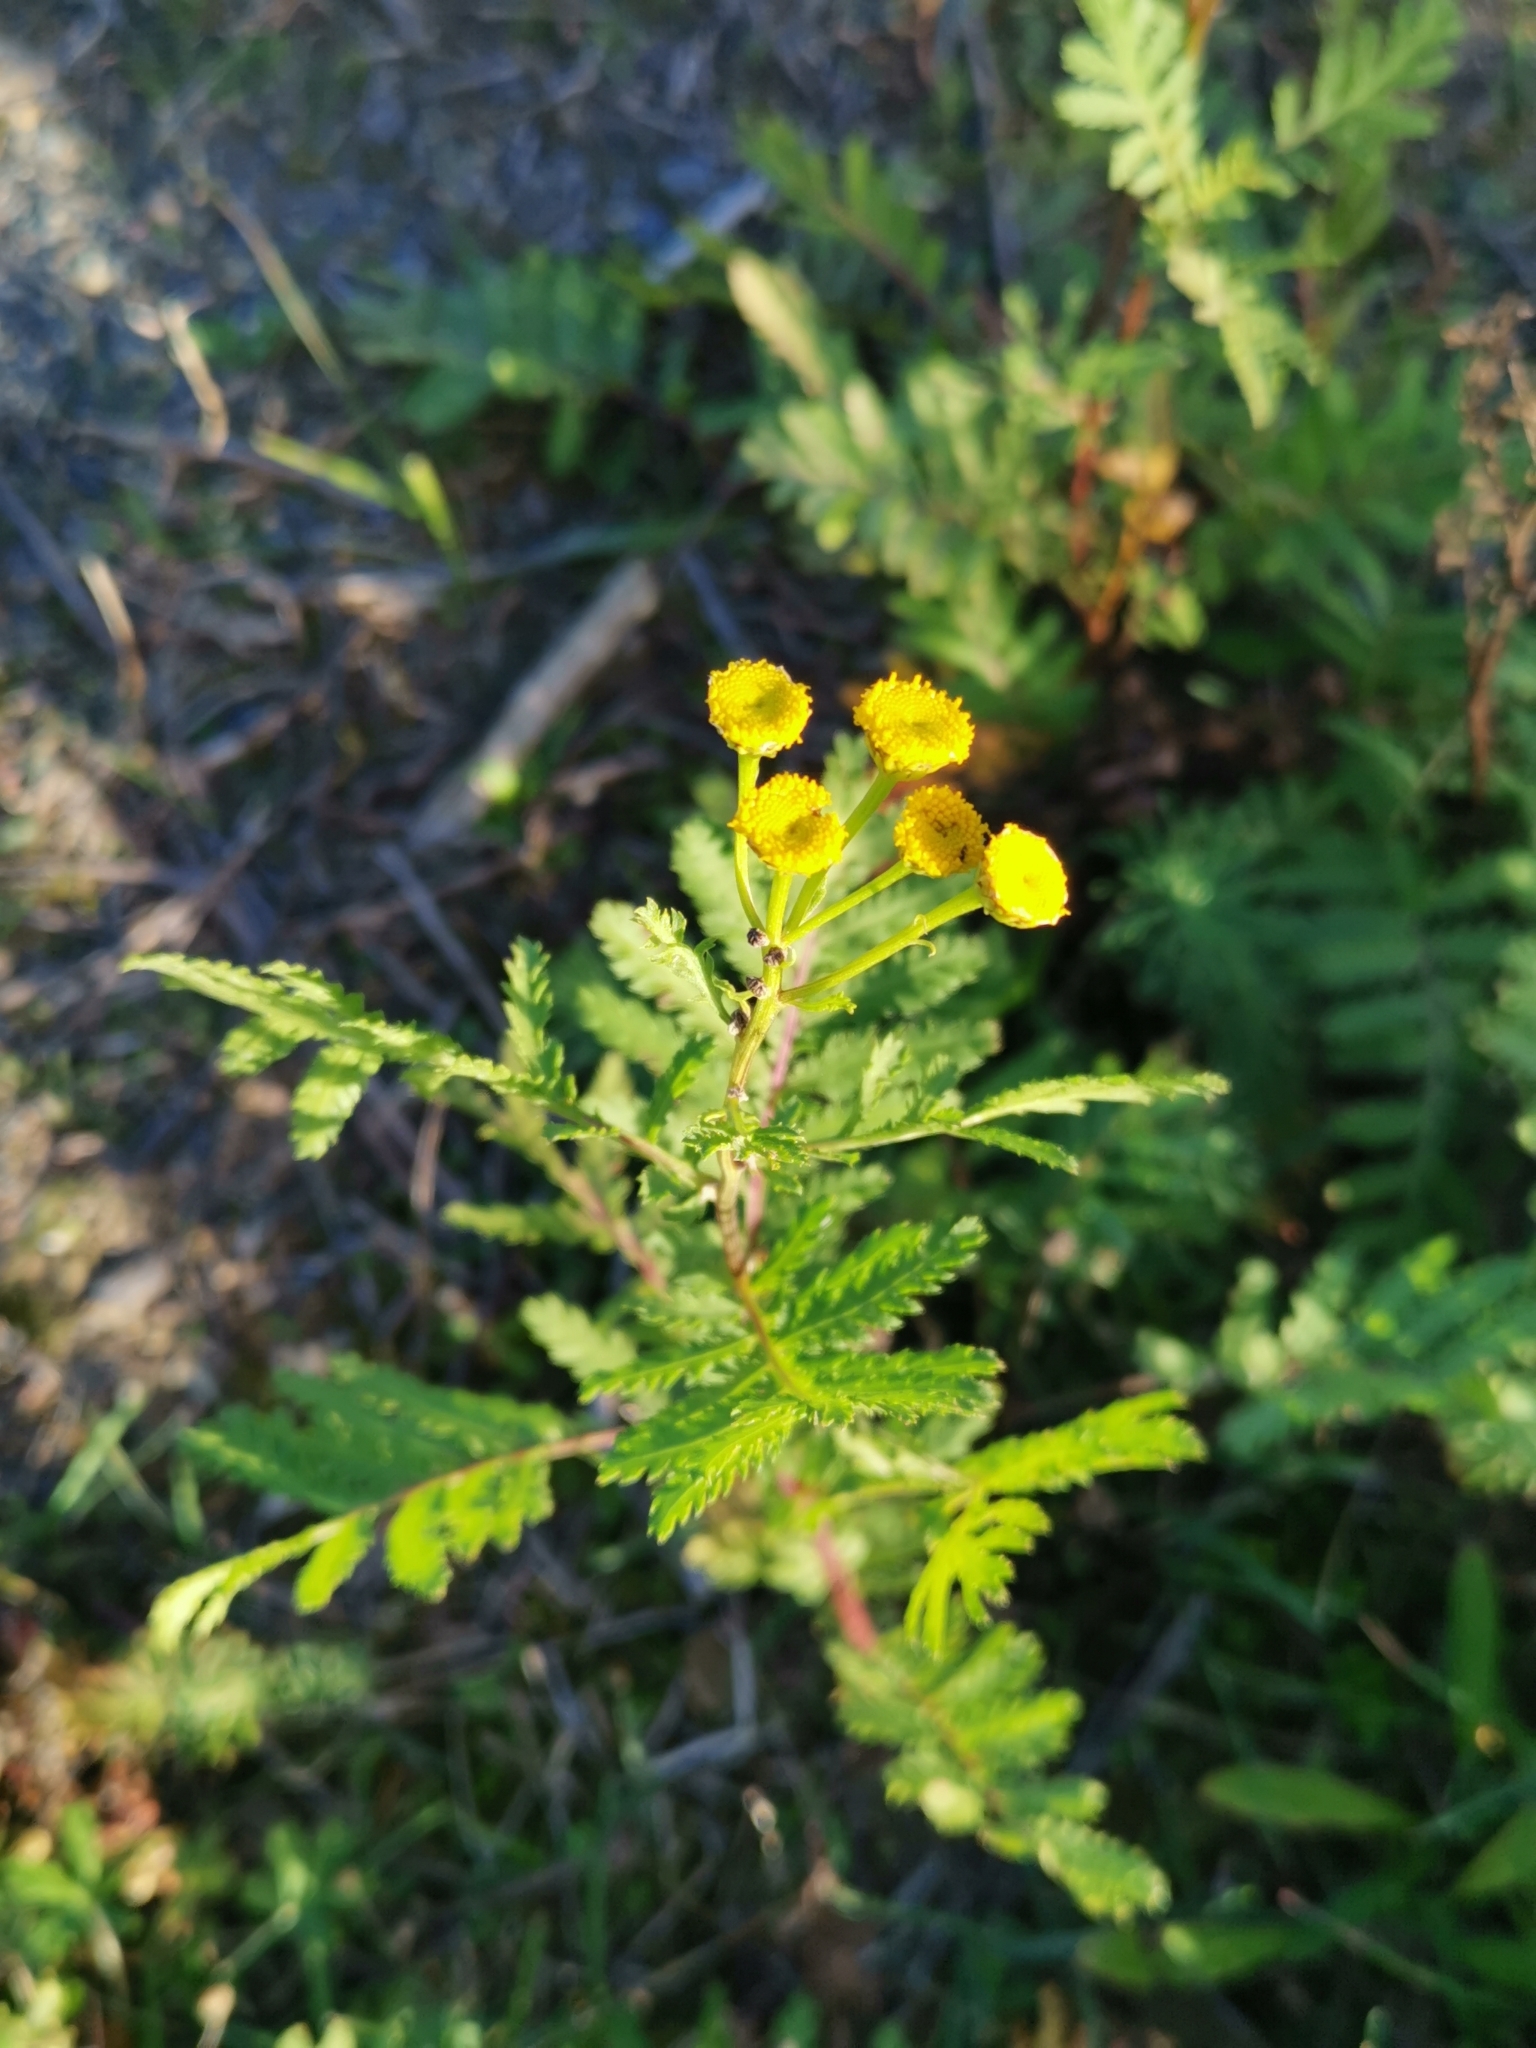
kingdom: Plantae
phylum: Tracheophyta
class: Magnoliopsida
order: Asterales
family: Asteraceae
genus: Tanacetum
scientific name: Tanacetum vulgare
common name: Common tansy
